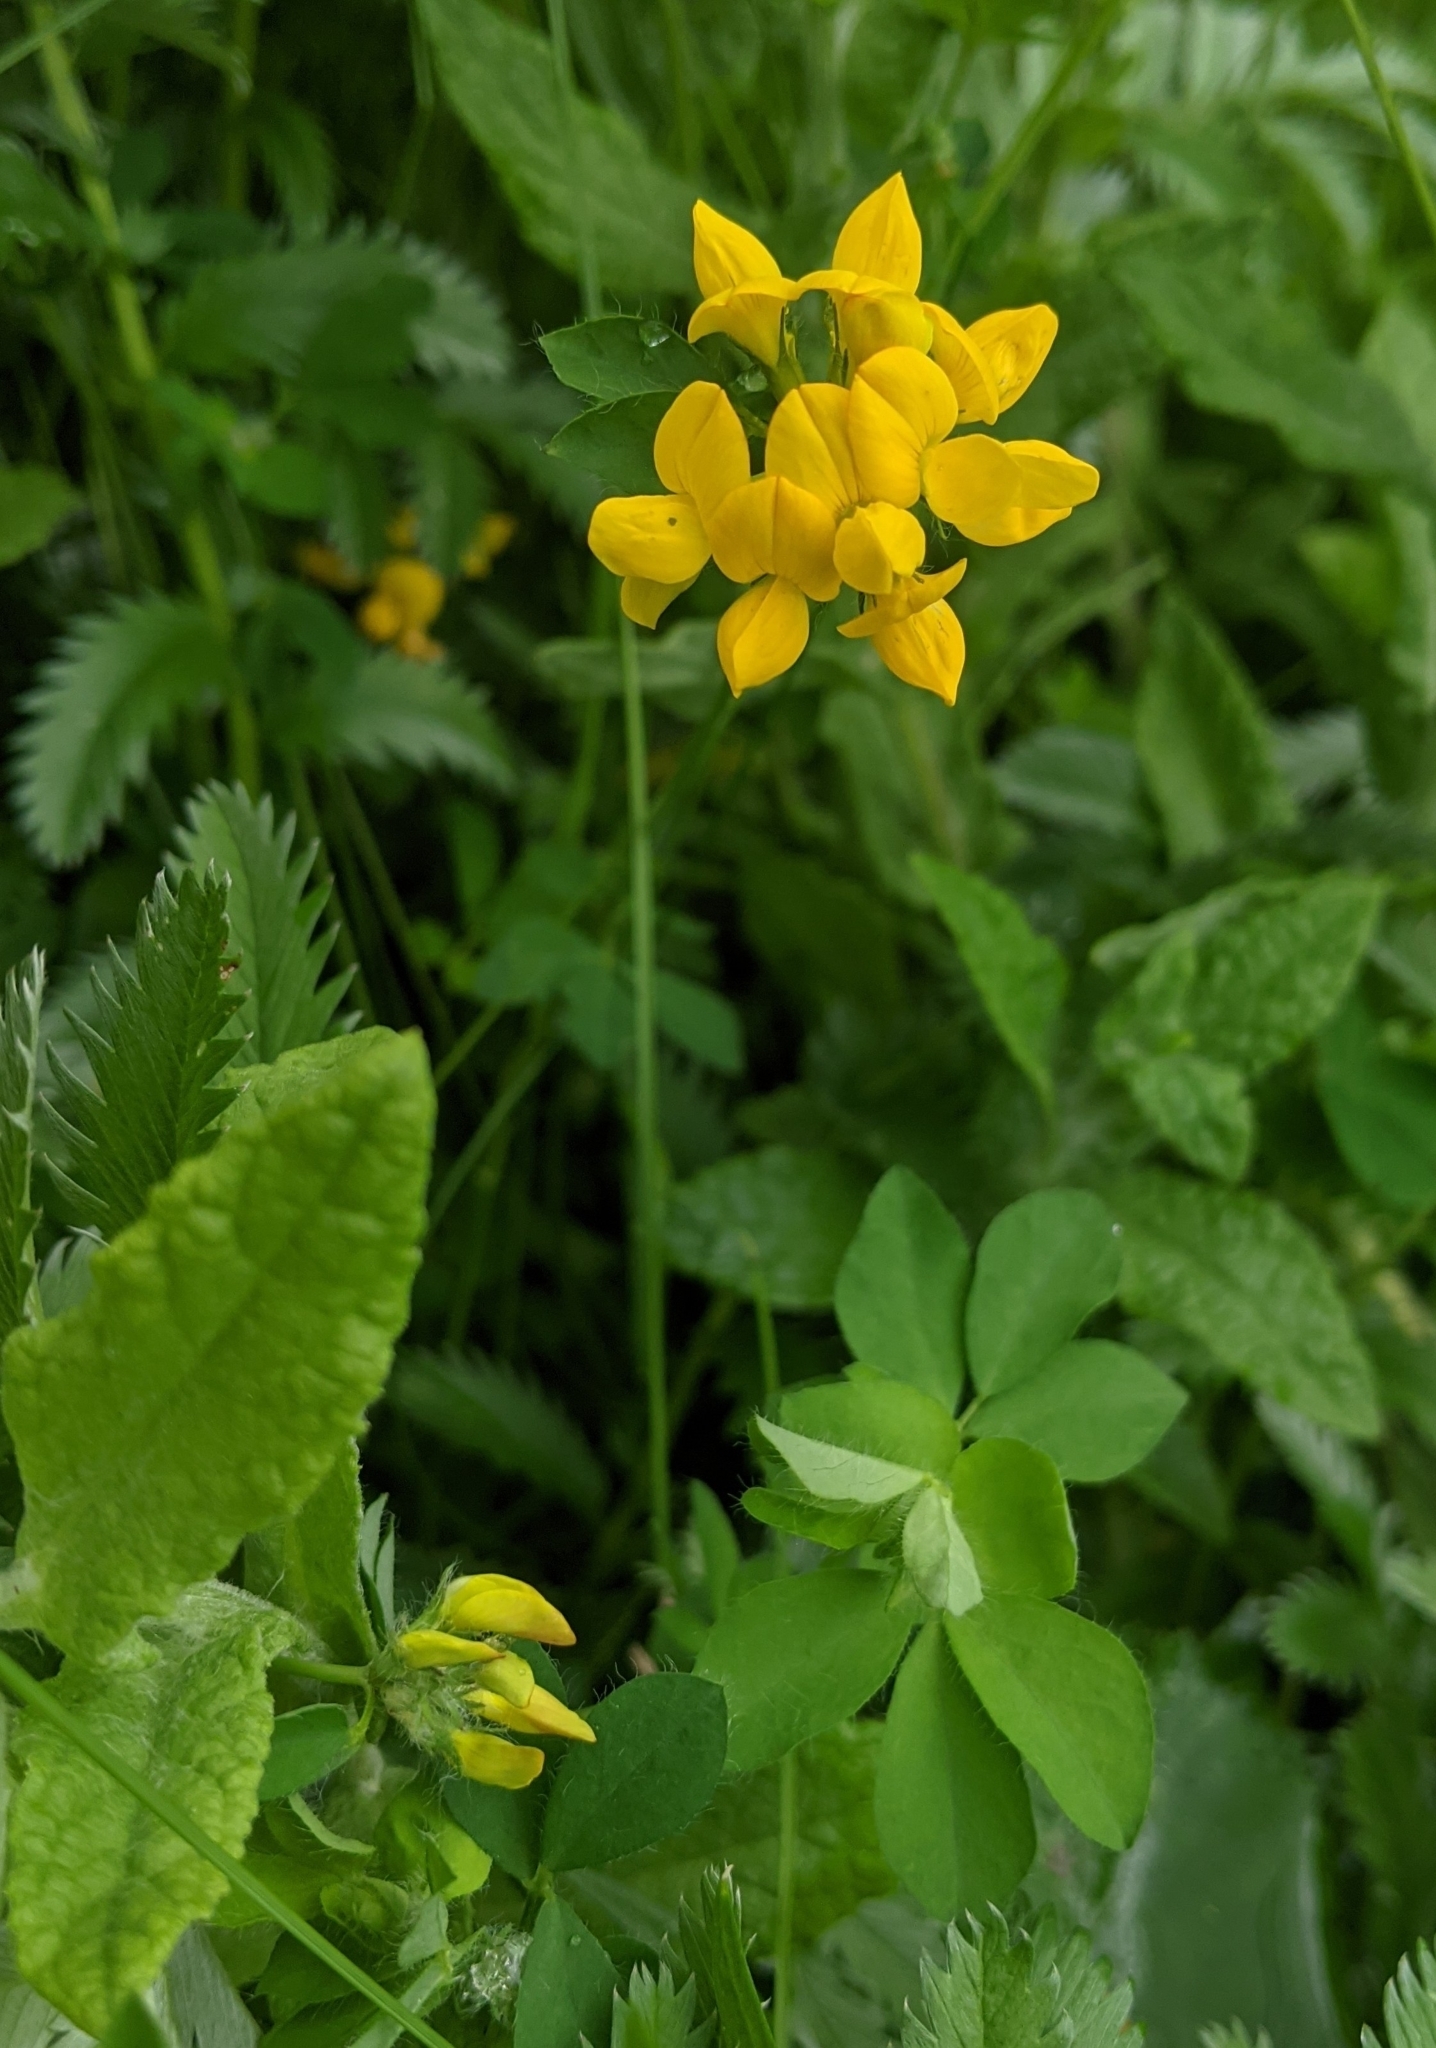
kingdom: Plantae
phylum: Tracheophyta
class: Magnoliopsida
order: Fabales
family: Fabaceae
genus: Lotus
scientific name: Lotus pedunculatus
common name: Greater birdsfoot-trefoil
